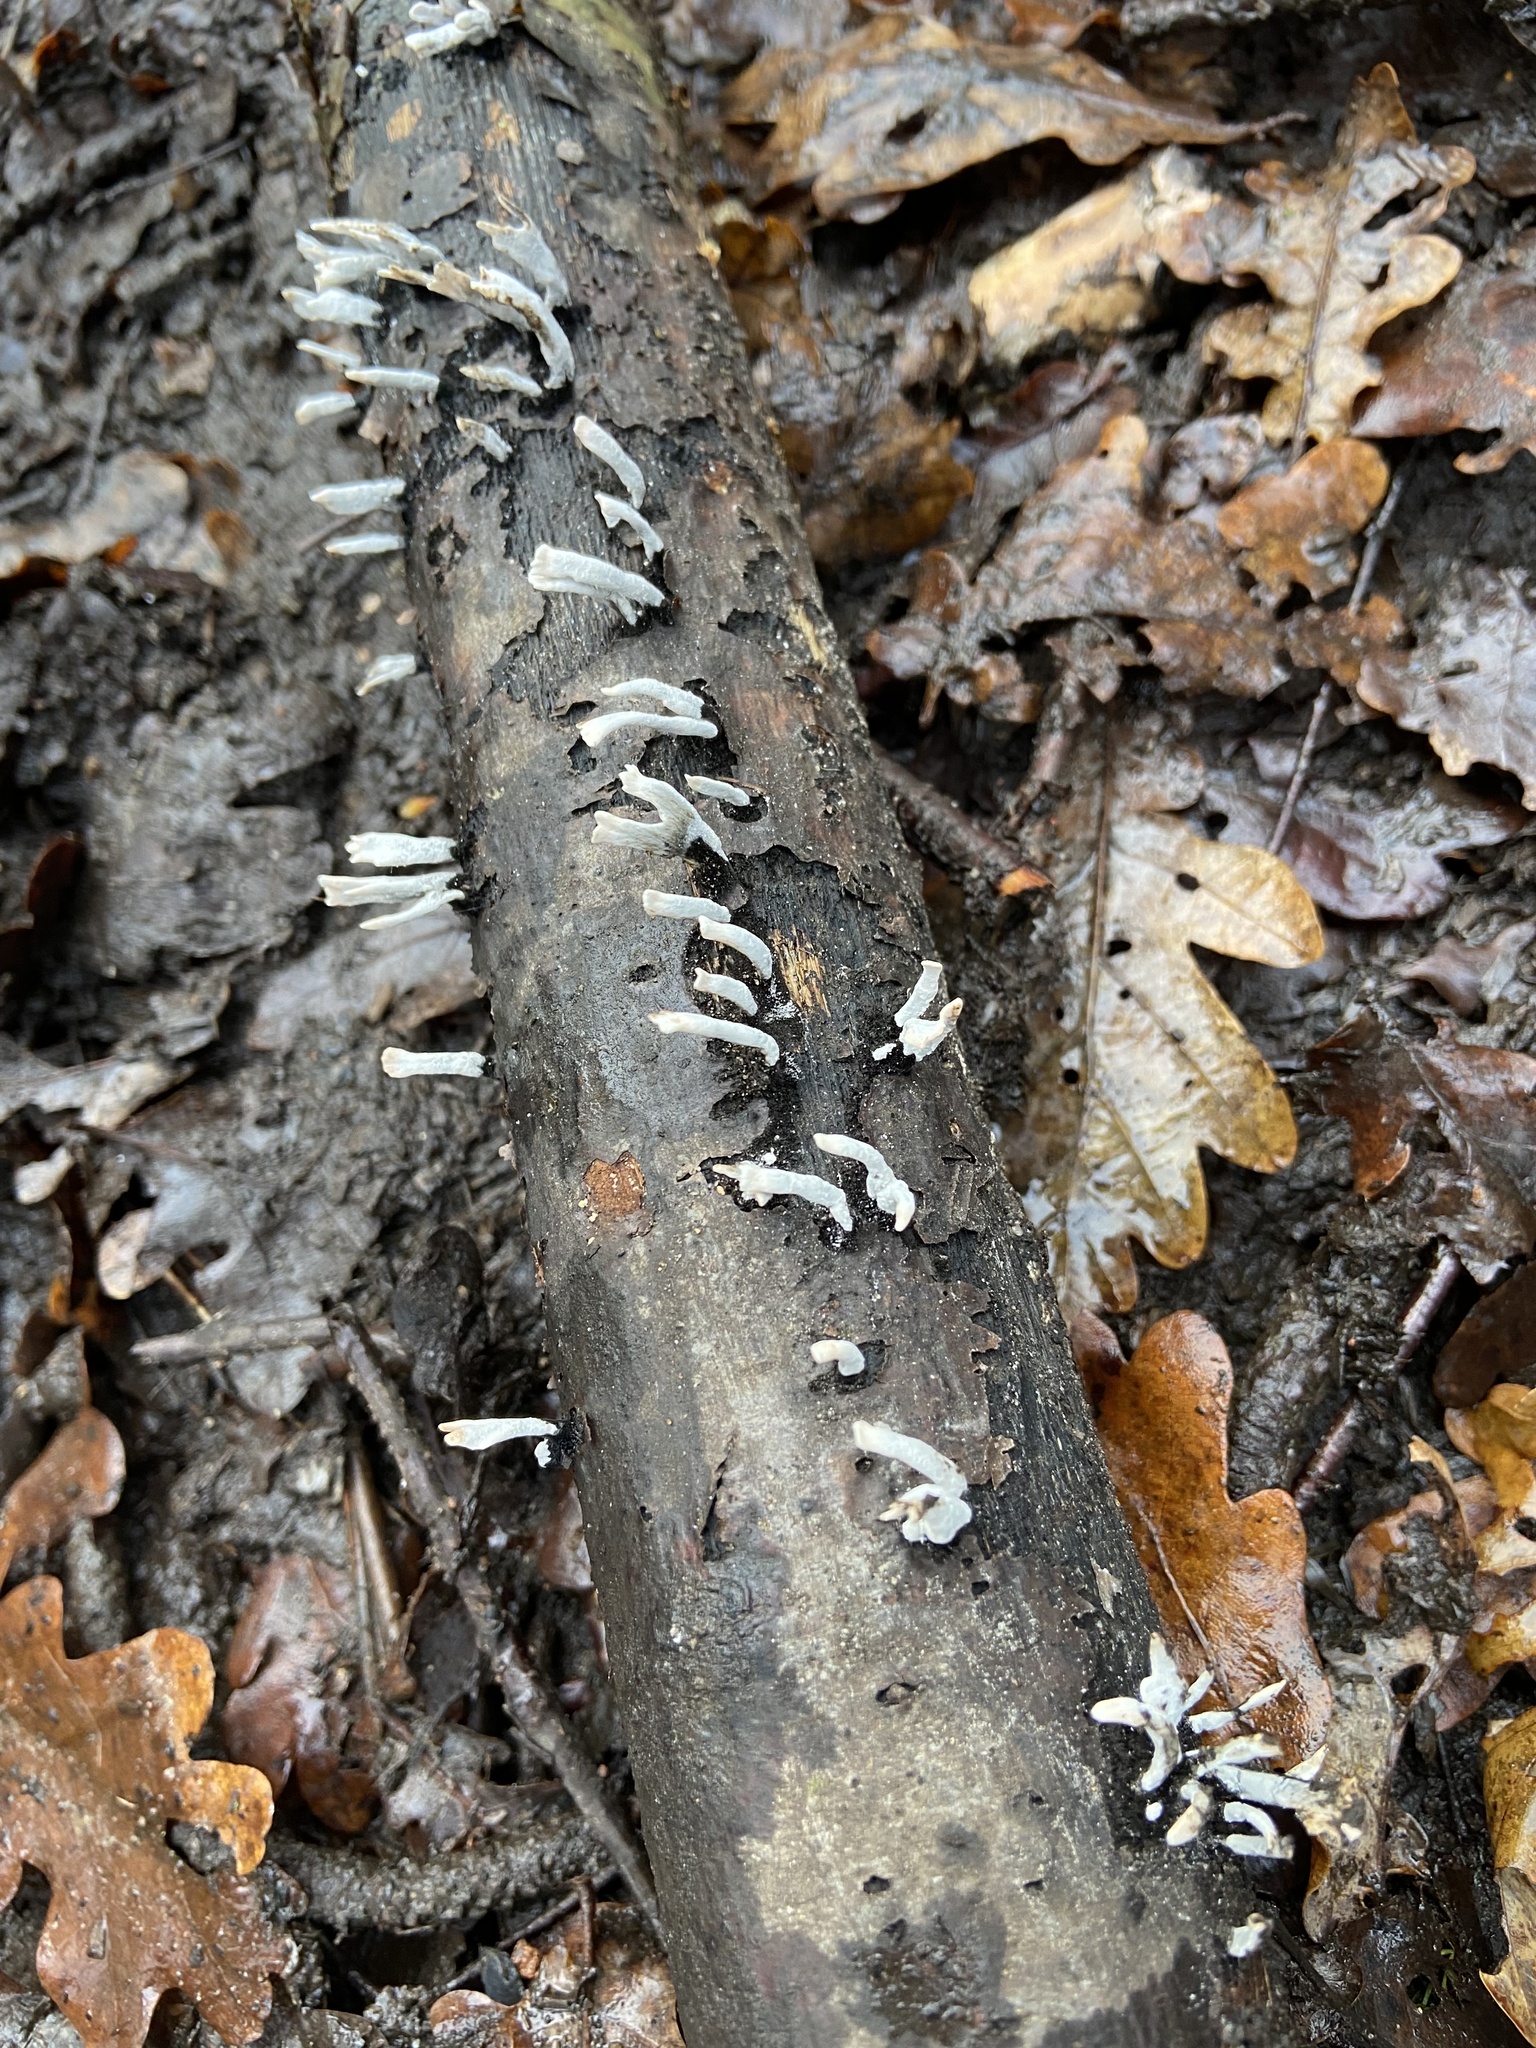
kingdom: Fungi
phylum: Ascomycota
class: Sordariomycetes
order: Xylariales
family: Xylariaceae
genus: Xylaria
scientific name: Xylaria hypoxylon
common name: Candle-snuff fungus
